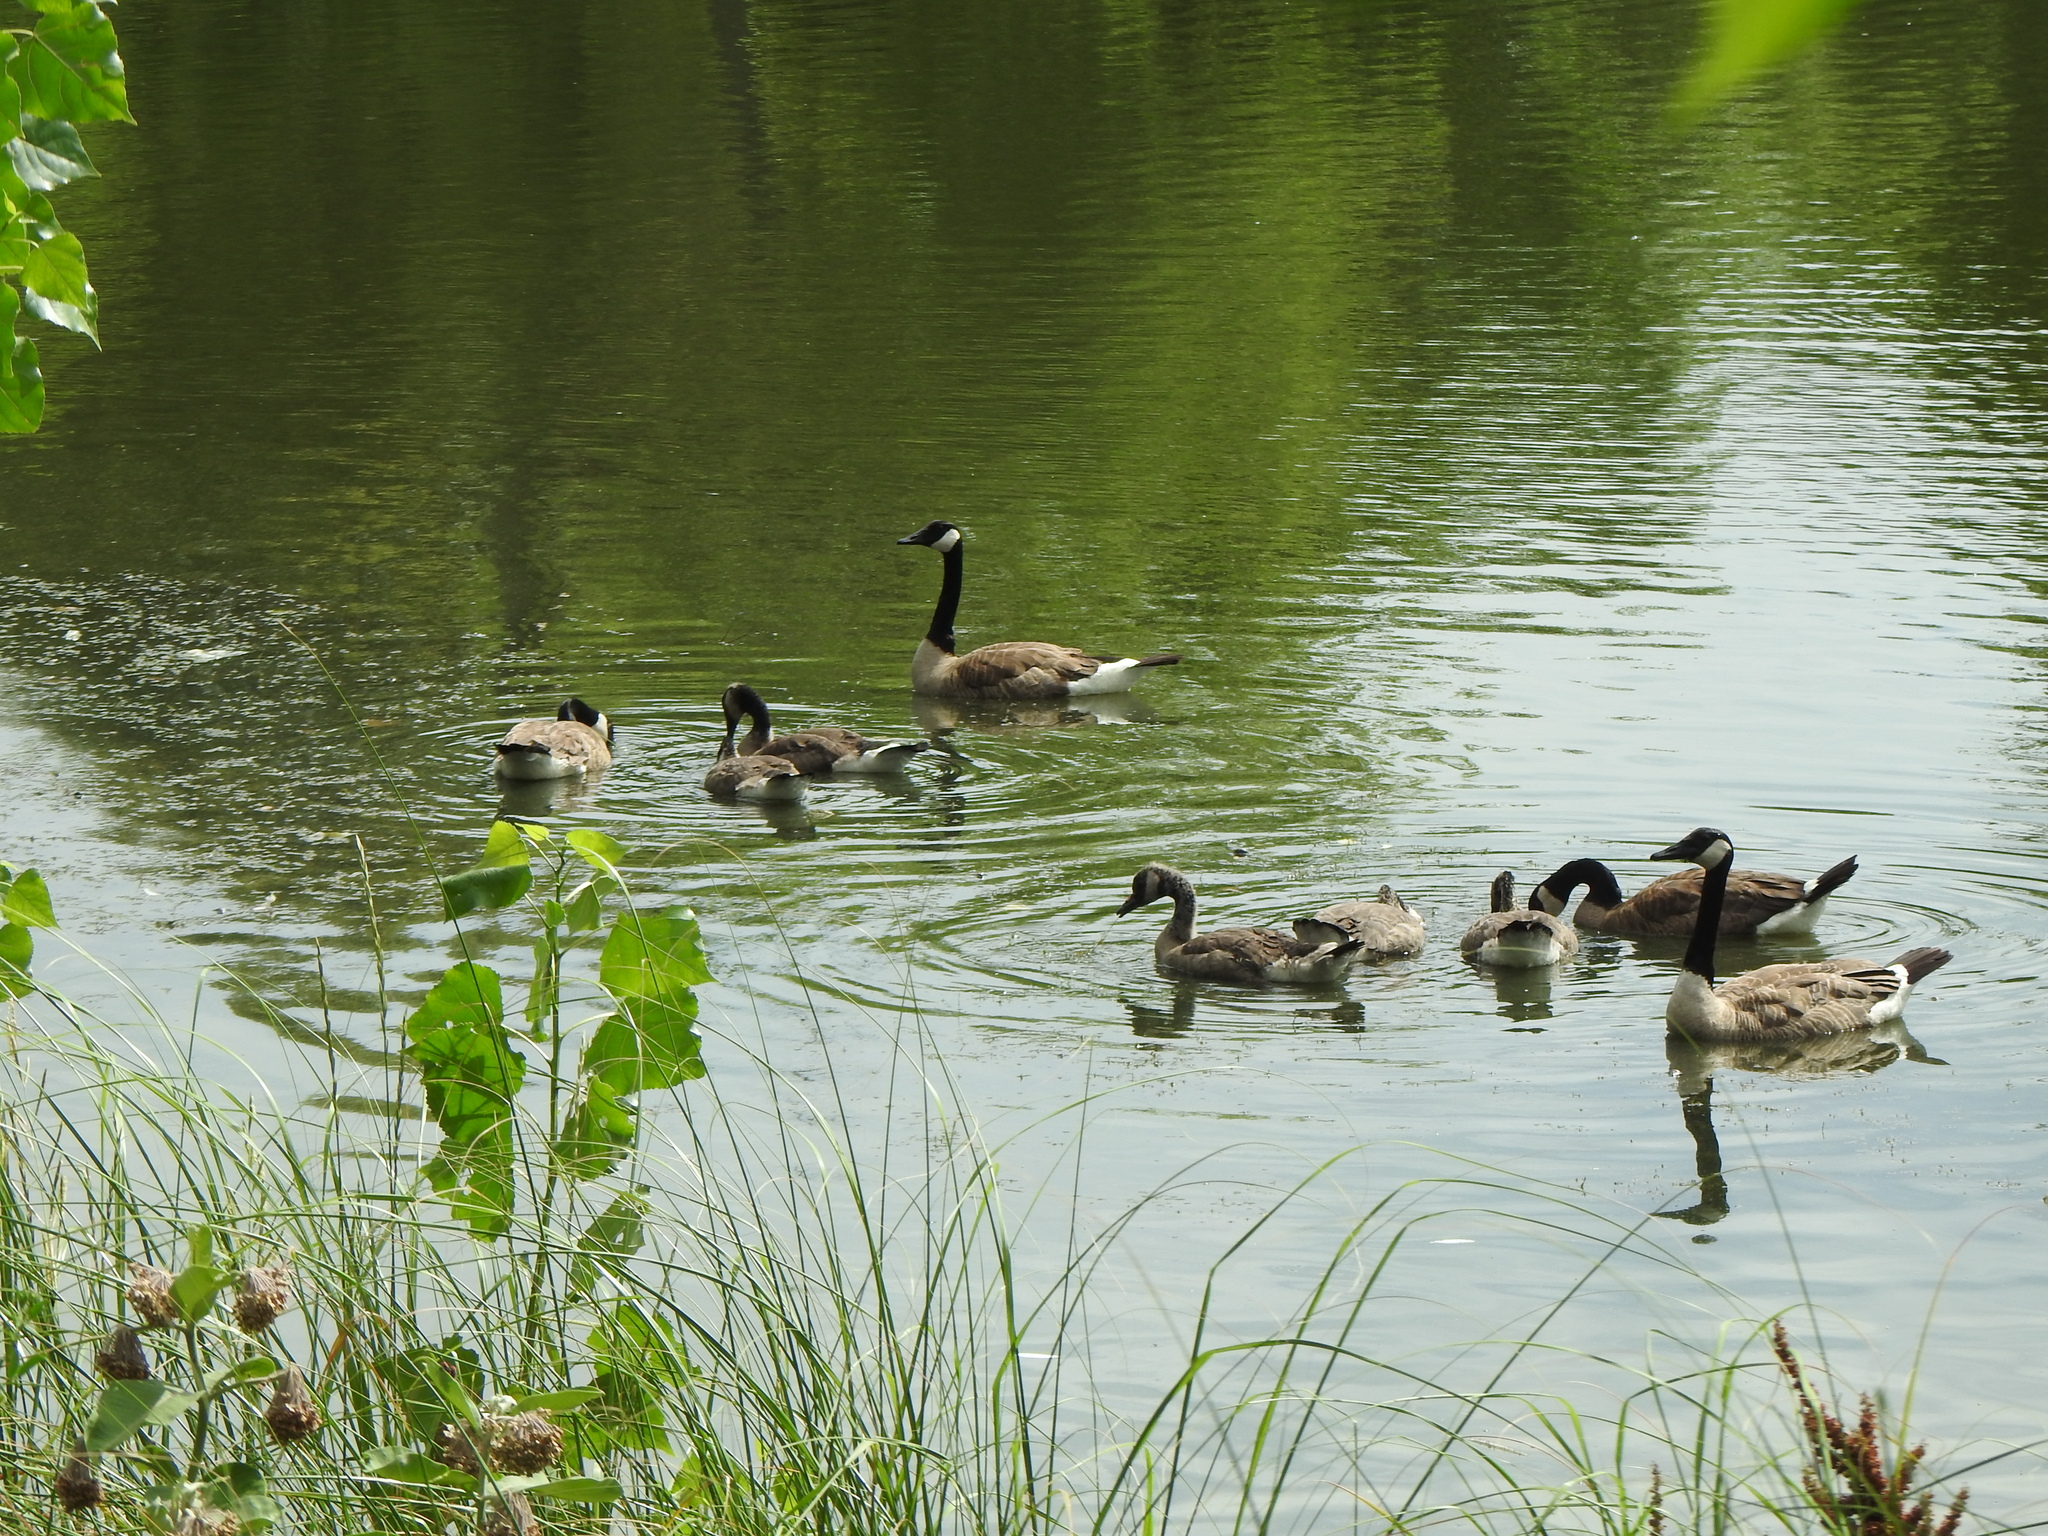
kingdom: Animalia
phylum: Chordata
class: Aves
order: Anseriformes
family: Anatidae
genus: Branta
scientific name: Branta canadensis
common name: Canada goose
